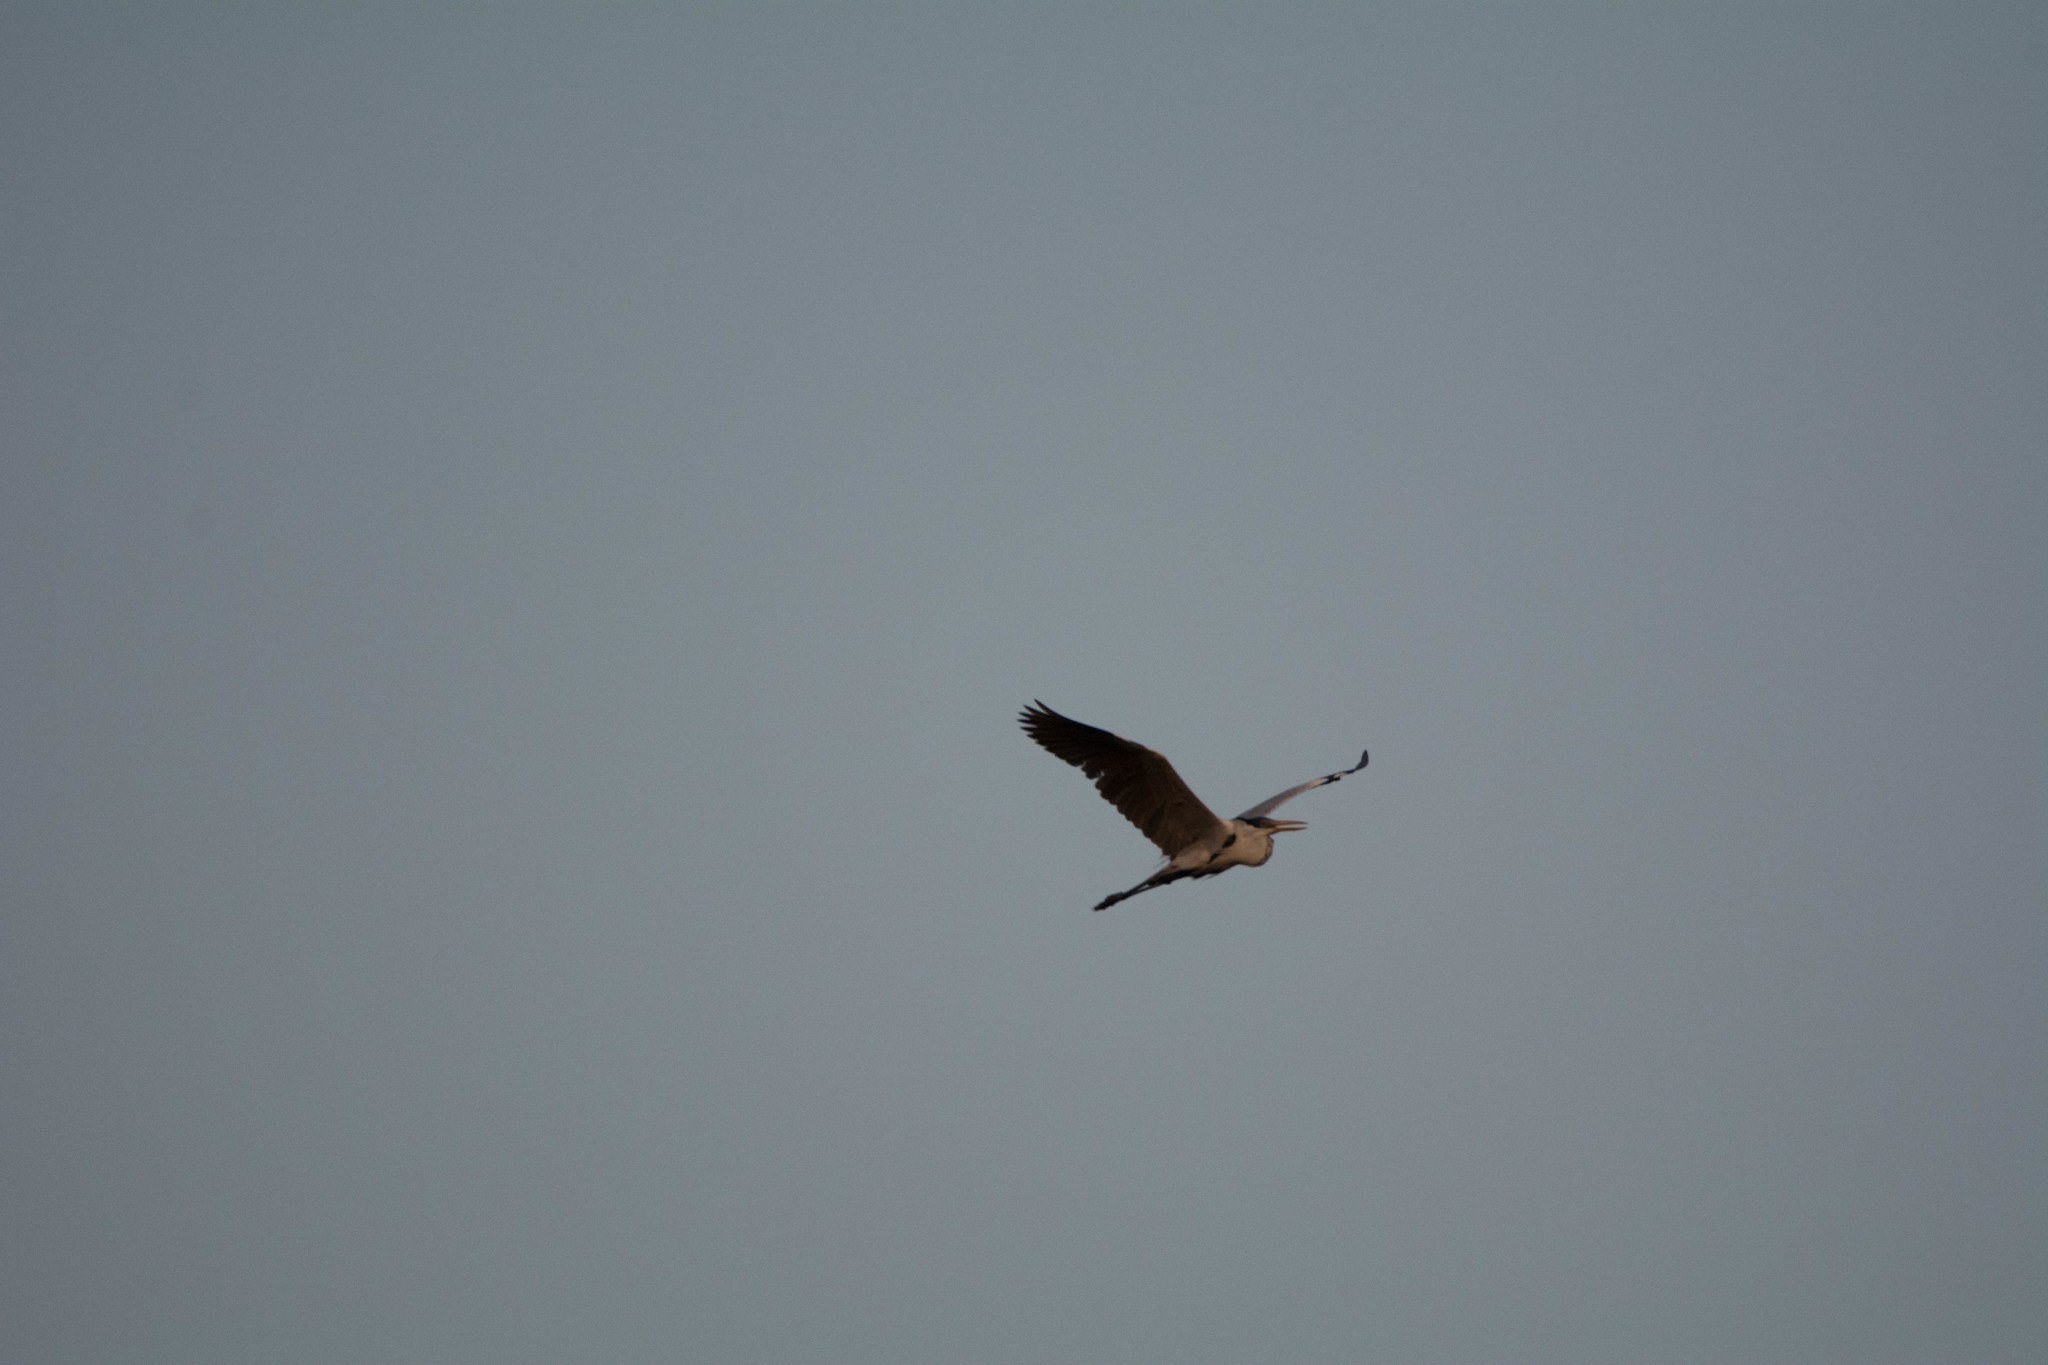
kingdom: Animalia
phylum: Chordata
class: Aves
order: Pelecaniformes
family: Ardeidae
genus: Ardea
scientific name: Ardea cocoi
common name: Cocoi heron
